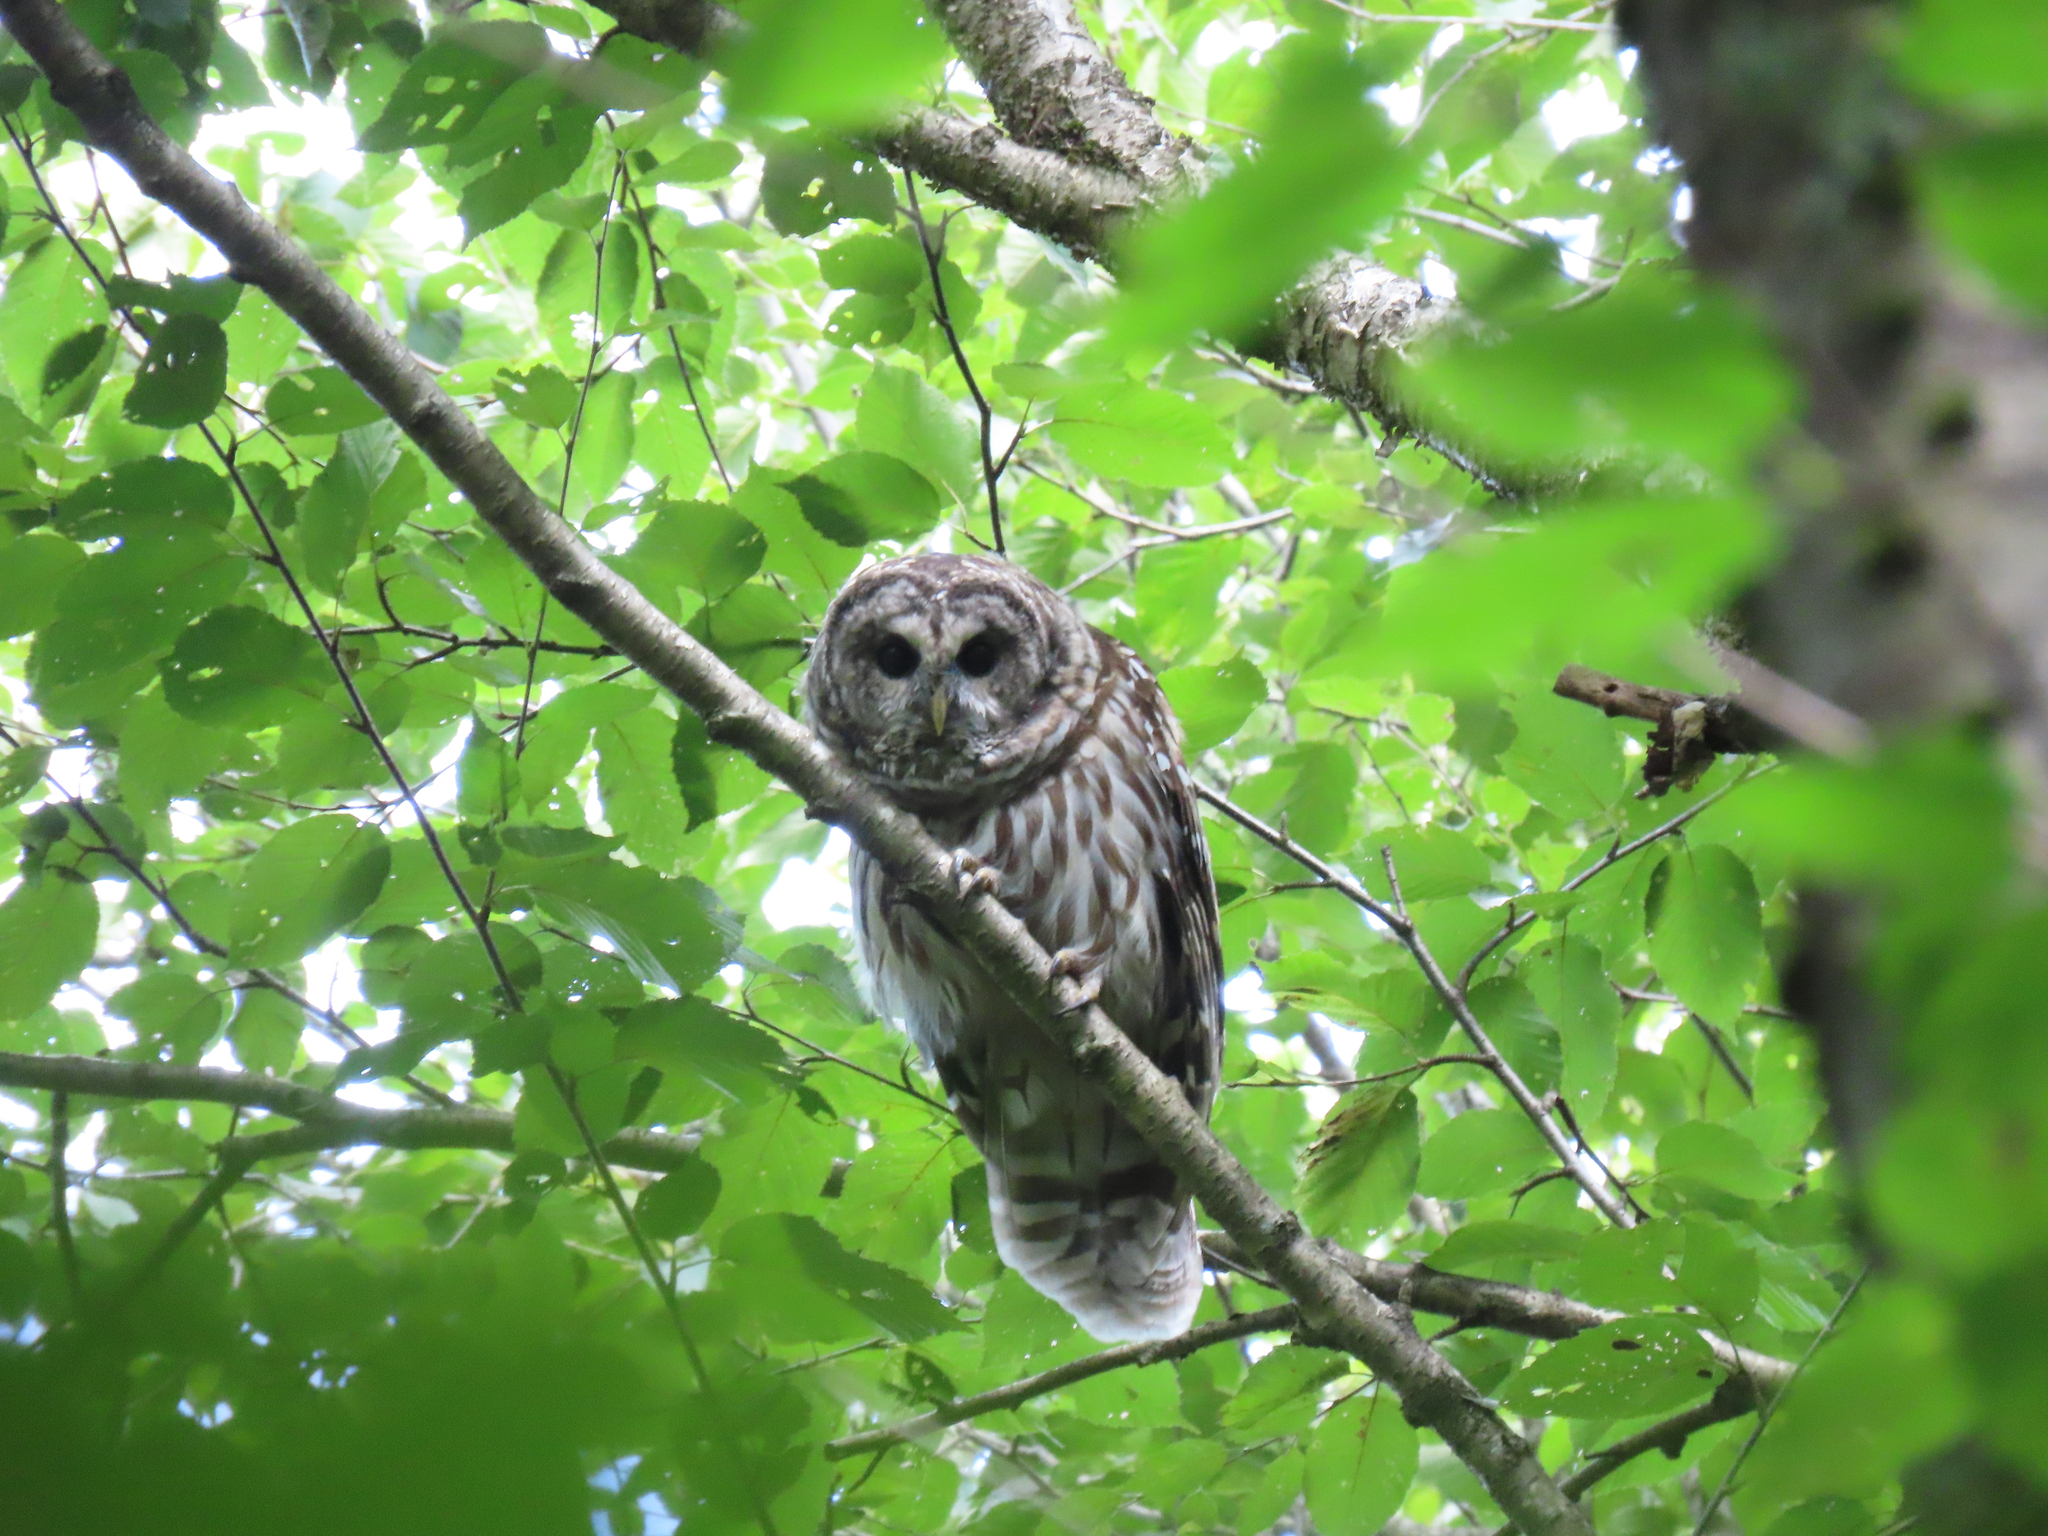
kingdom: Animalia
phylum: Chordata
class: Aves
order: Strigiformes
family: Strigidae
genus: Strix
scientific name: Strix varia
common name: Barred owl
